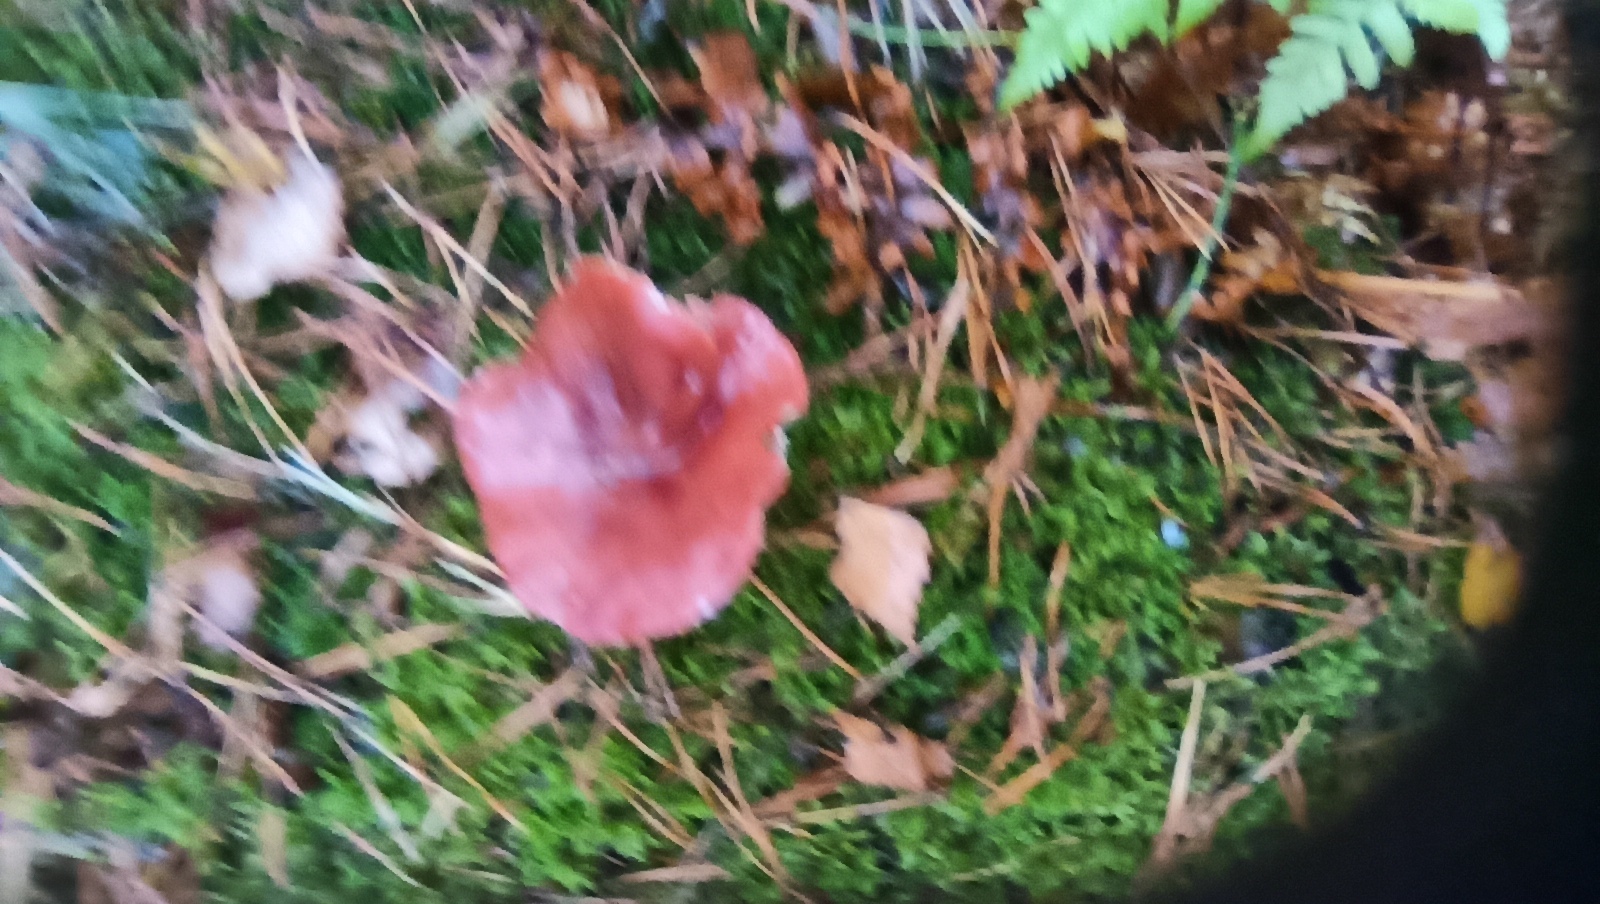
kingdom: Fungi
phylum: Basidiomycota
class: Agaricomycetes
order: Russulales
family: Russulaceae
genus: Lactarius
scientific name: Lactarius rufus
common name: Rufous milk-cap
